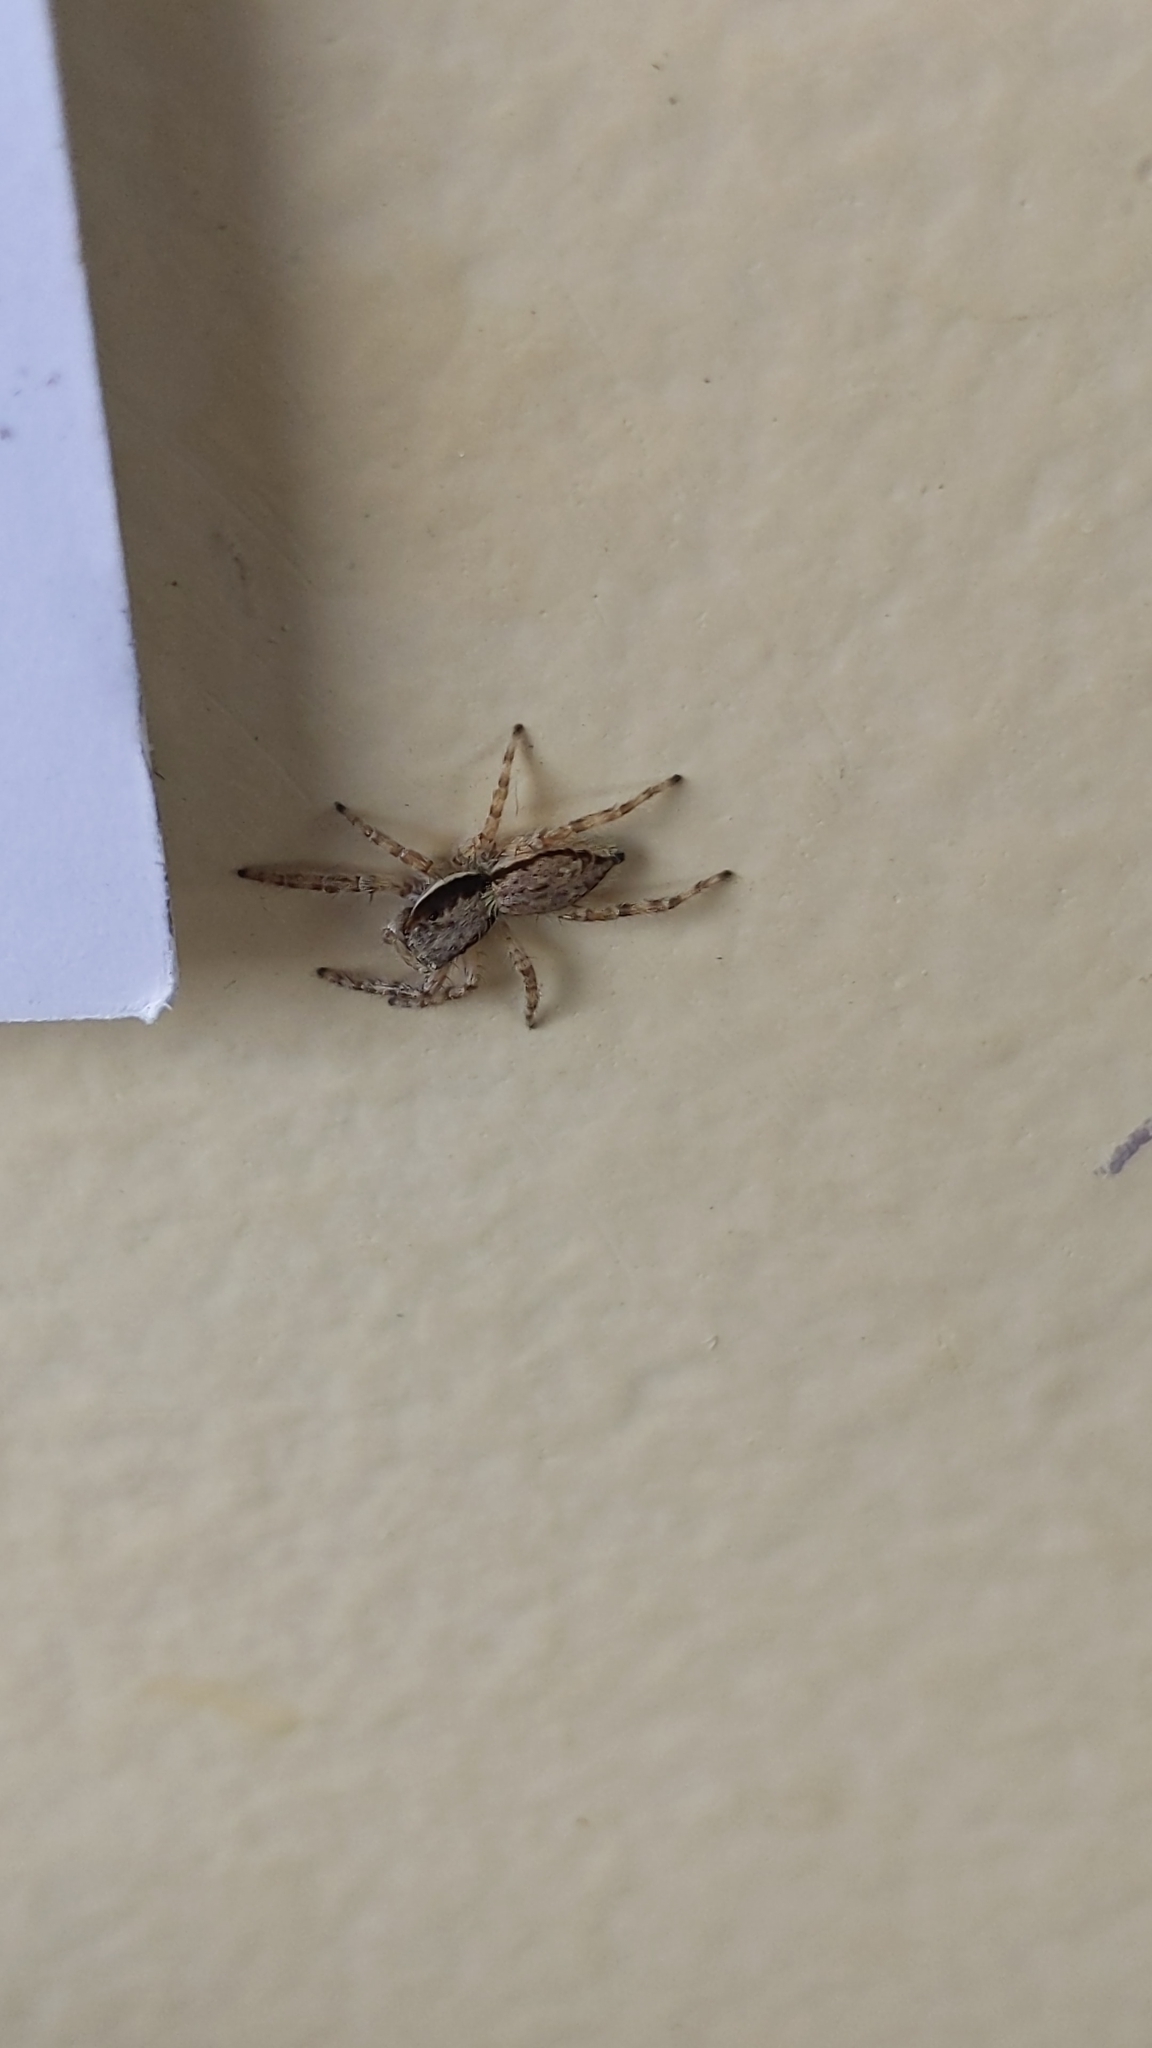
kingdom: Animalia
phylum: Arthropoda
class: Arachnida
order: Araneae
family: Salticidae
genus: Menemerus
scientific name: Menemerus bivittatus
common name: Gray wall jumper
